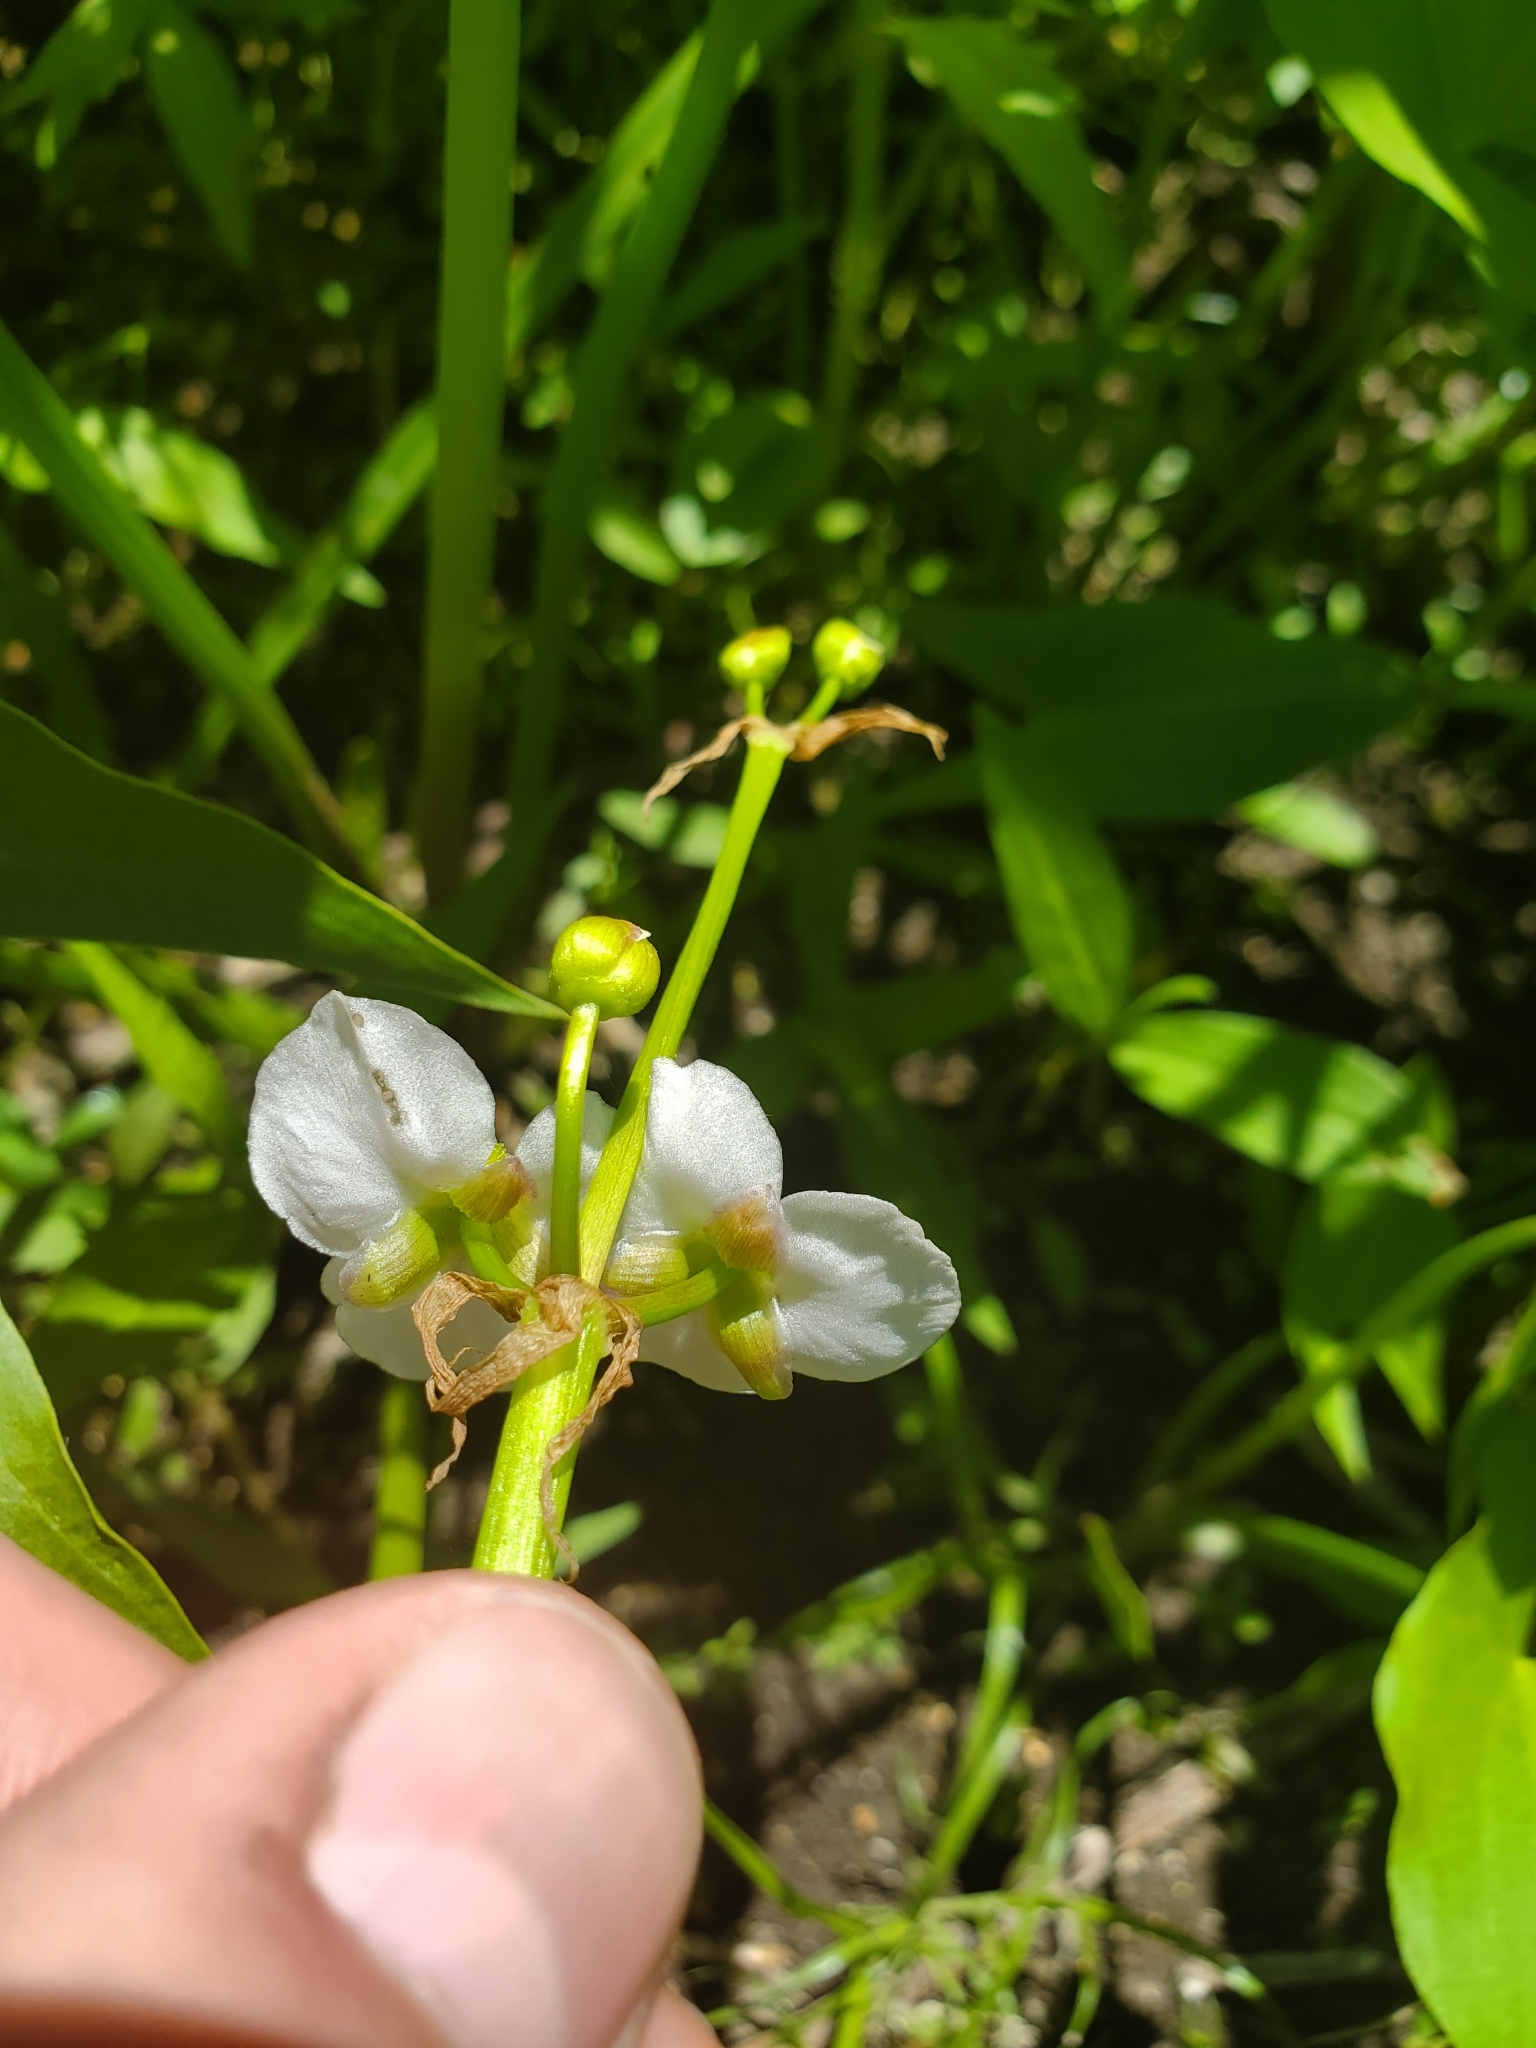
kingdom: Plantae
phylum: Tracheophyta
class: Liliopsida
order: Alismatales
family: Alismataceae
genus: Sagittaria
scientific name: Sagittaria cuneata
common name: Northern arrowhead
